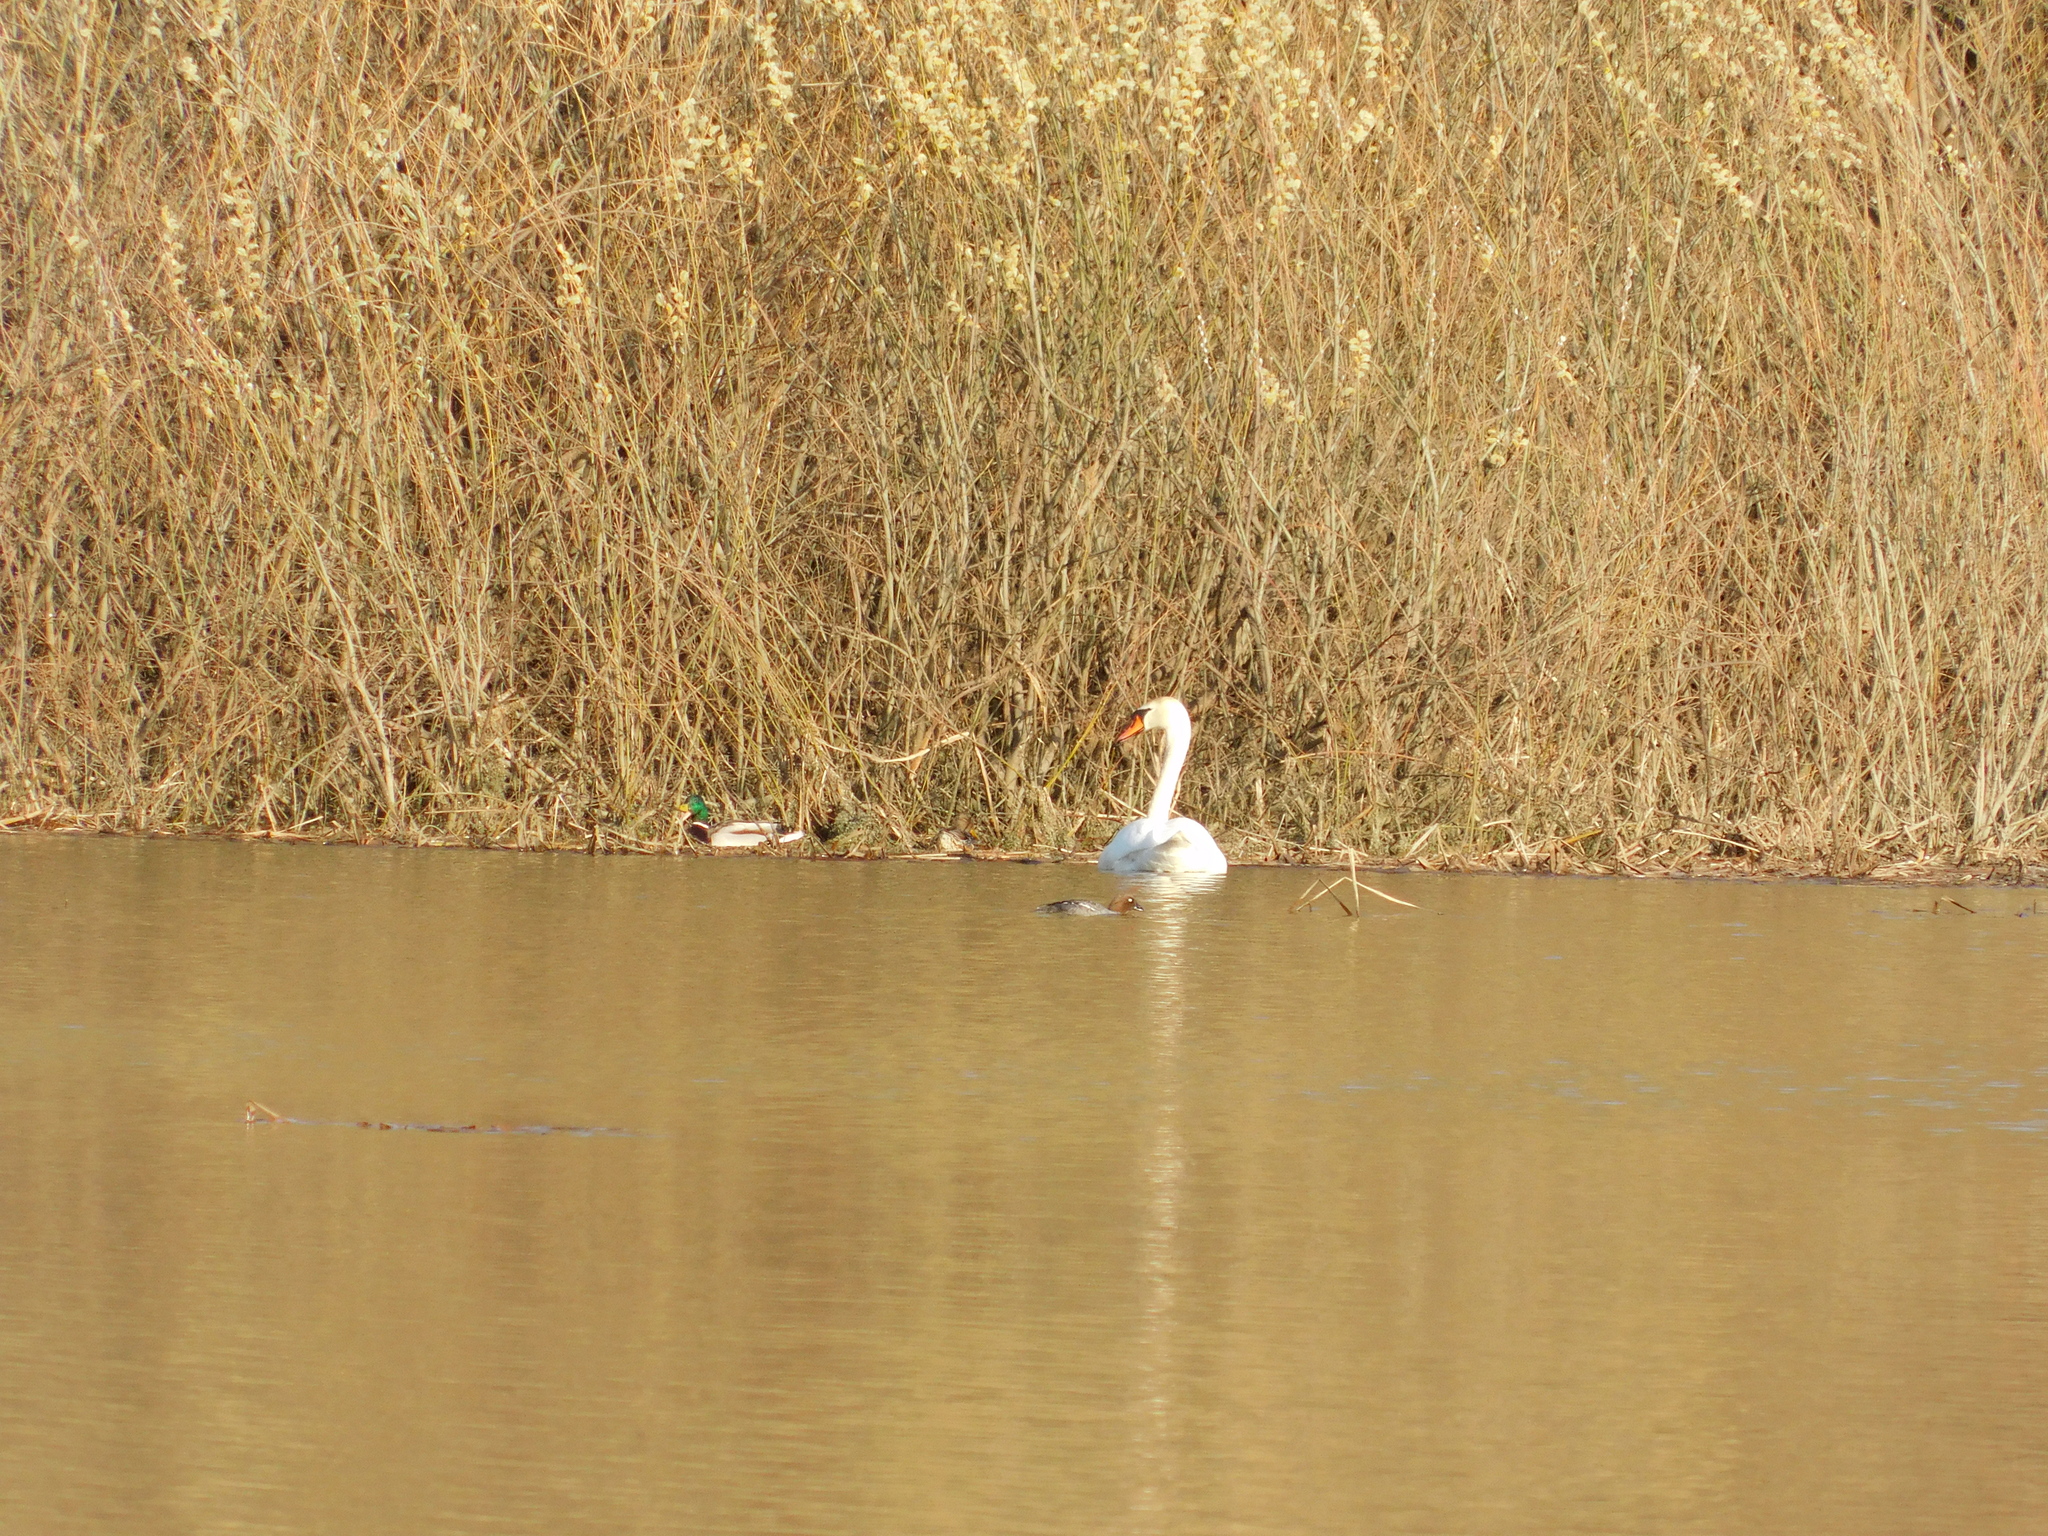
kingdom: Animalia
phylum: Chordata
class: Aves
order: Anseriformes
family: Anatidae
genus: Anas
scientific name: Anas platyrhynchos
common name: Mallard
